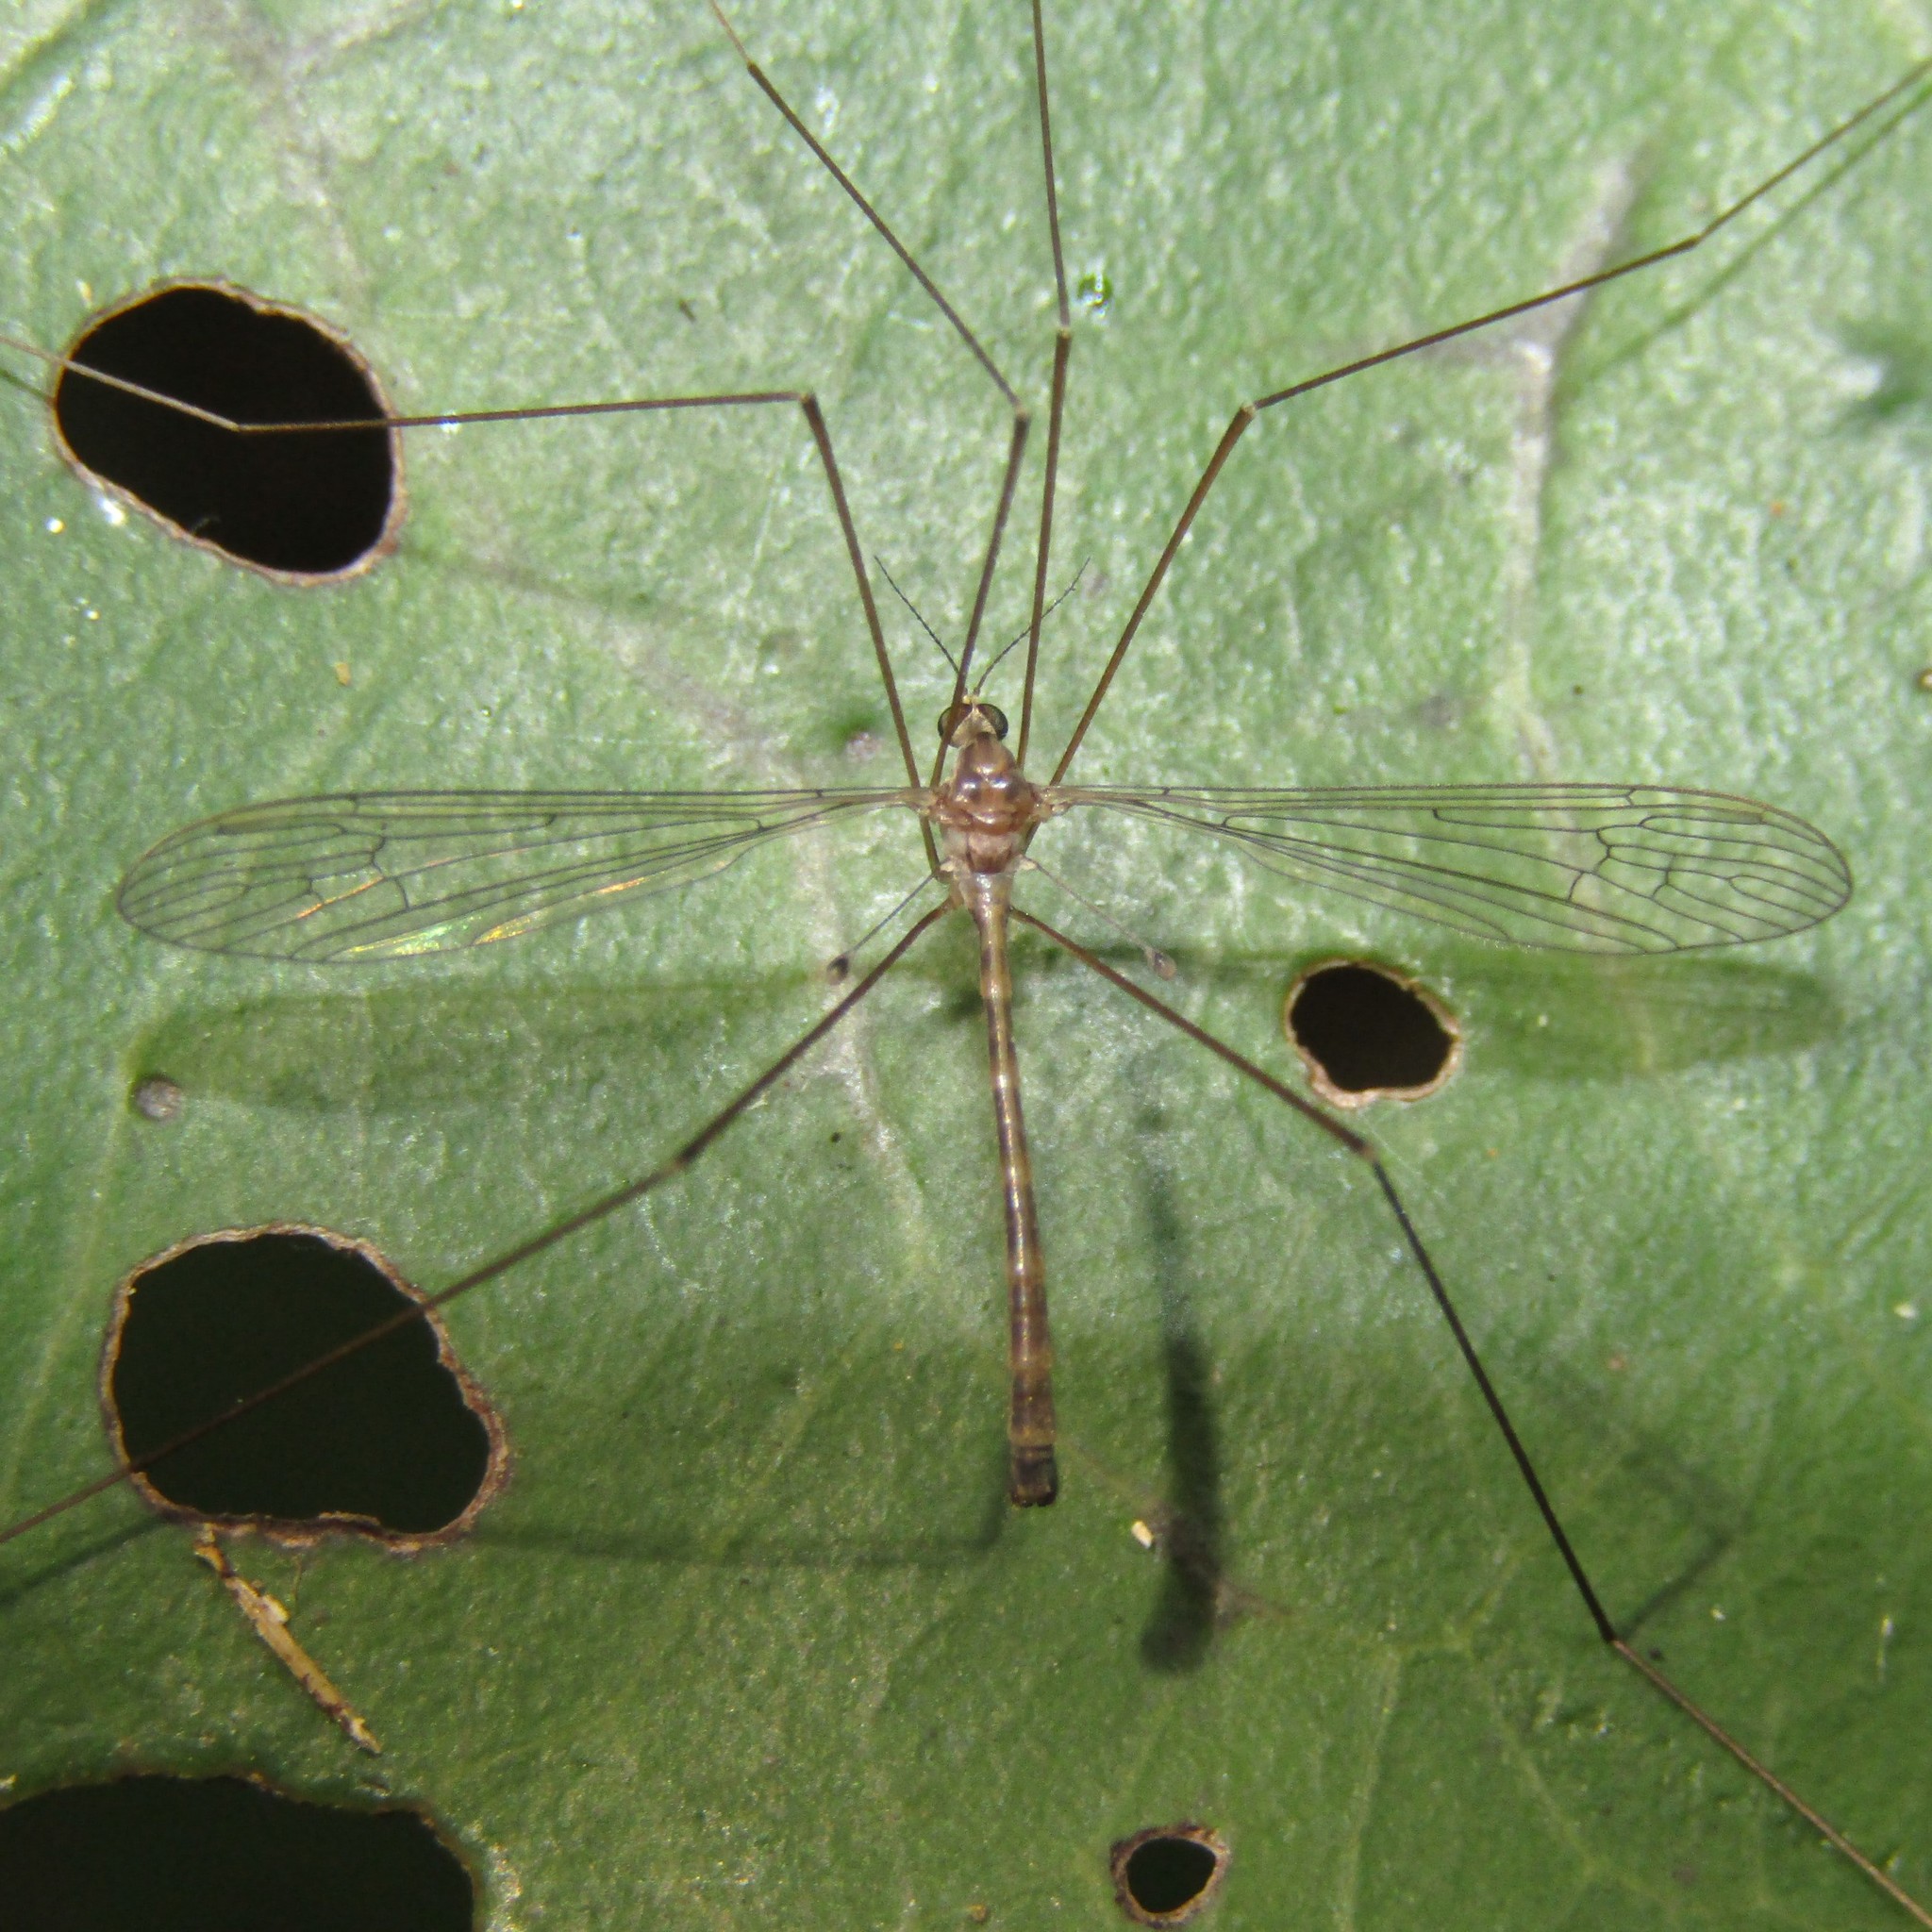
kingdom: Animalia
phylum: Arthropoda
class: Insecta
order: Diptera
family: Limoniidae
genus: Limnophilella
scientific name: Limnophilella delicatula
